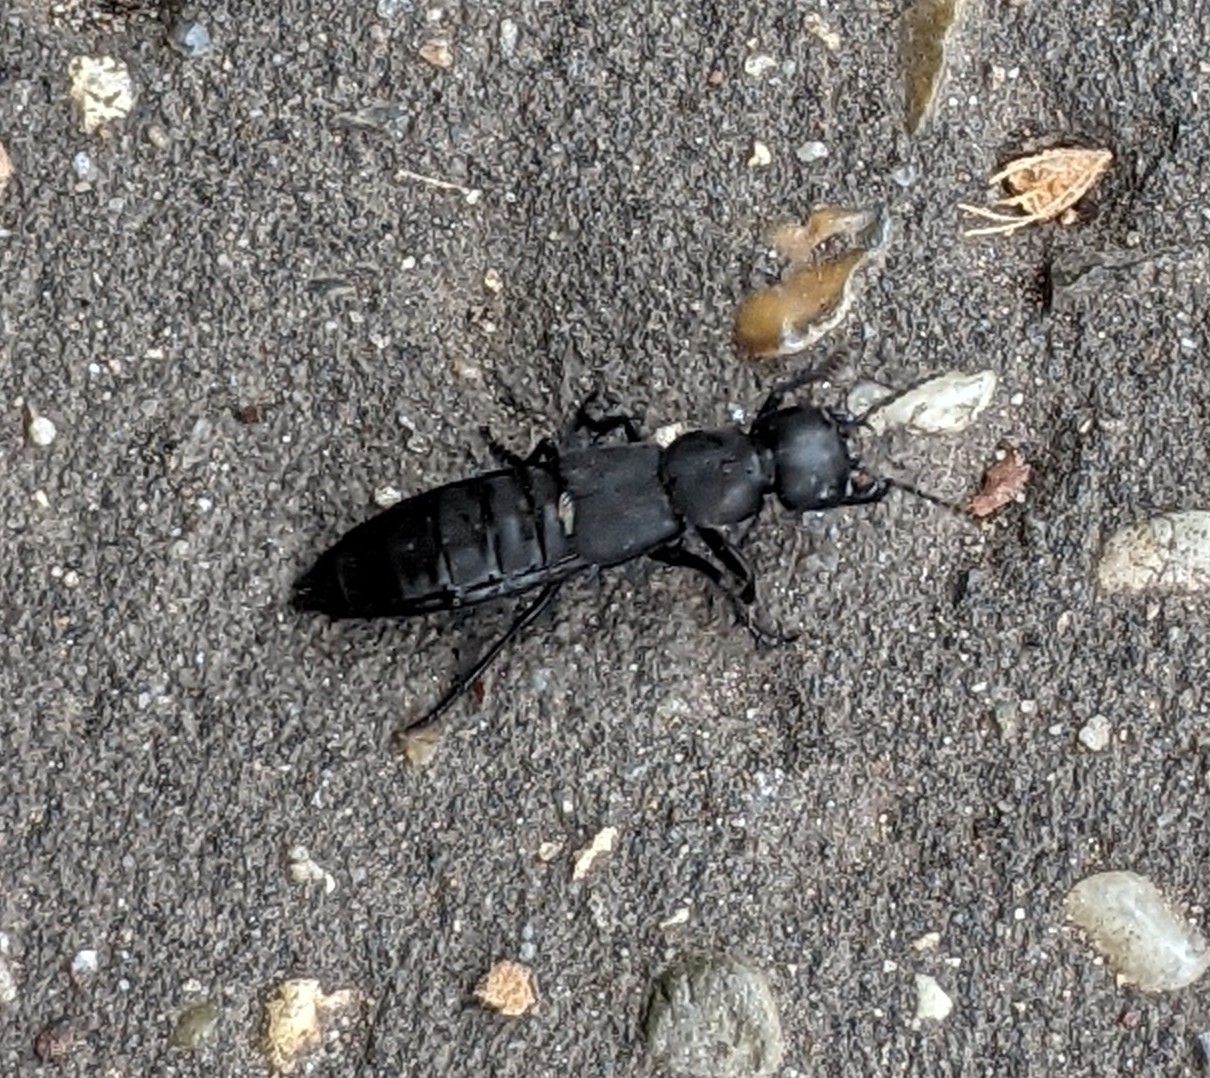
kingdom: Animalia
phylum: Arthropoda
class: Insecta
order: Coleoptera
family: Staphylinidae
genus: Ocypus
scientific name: Ocypus olens
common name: Devil's coach-horse
